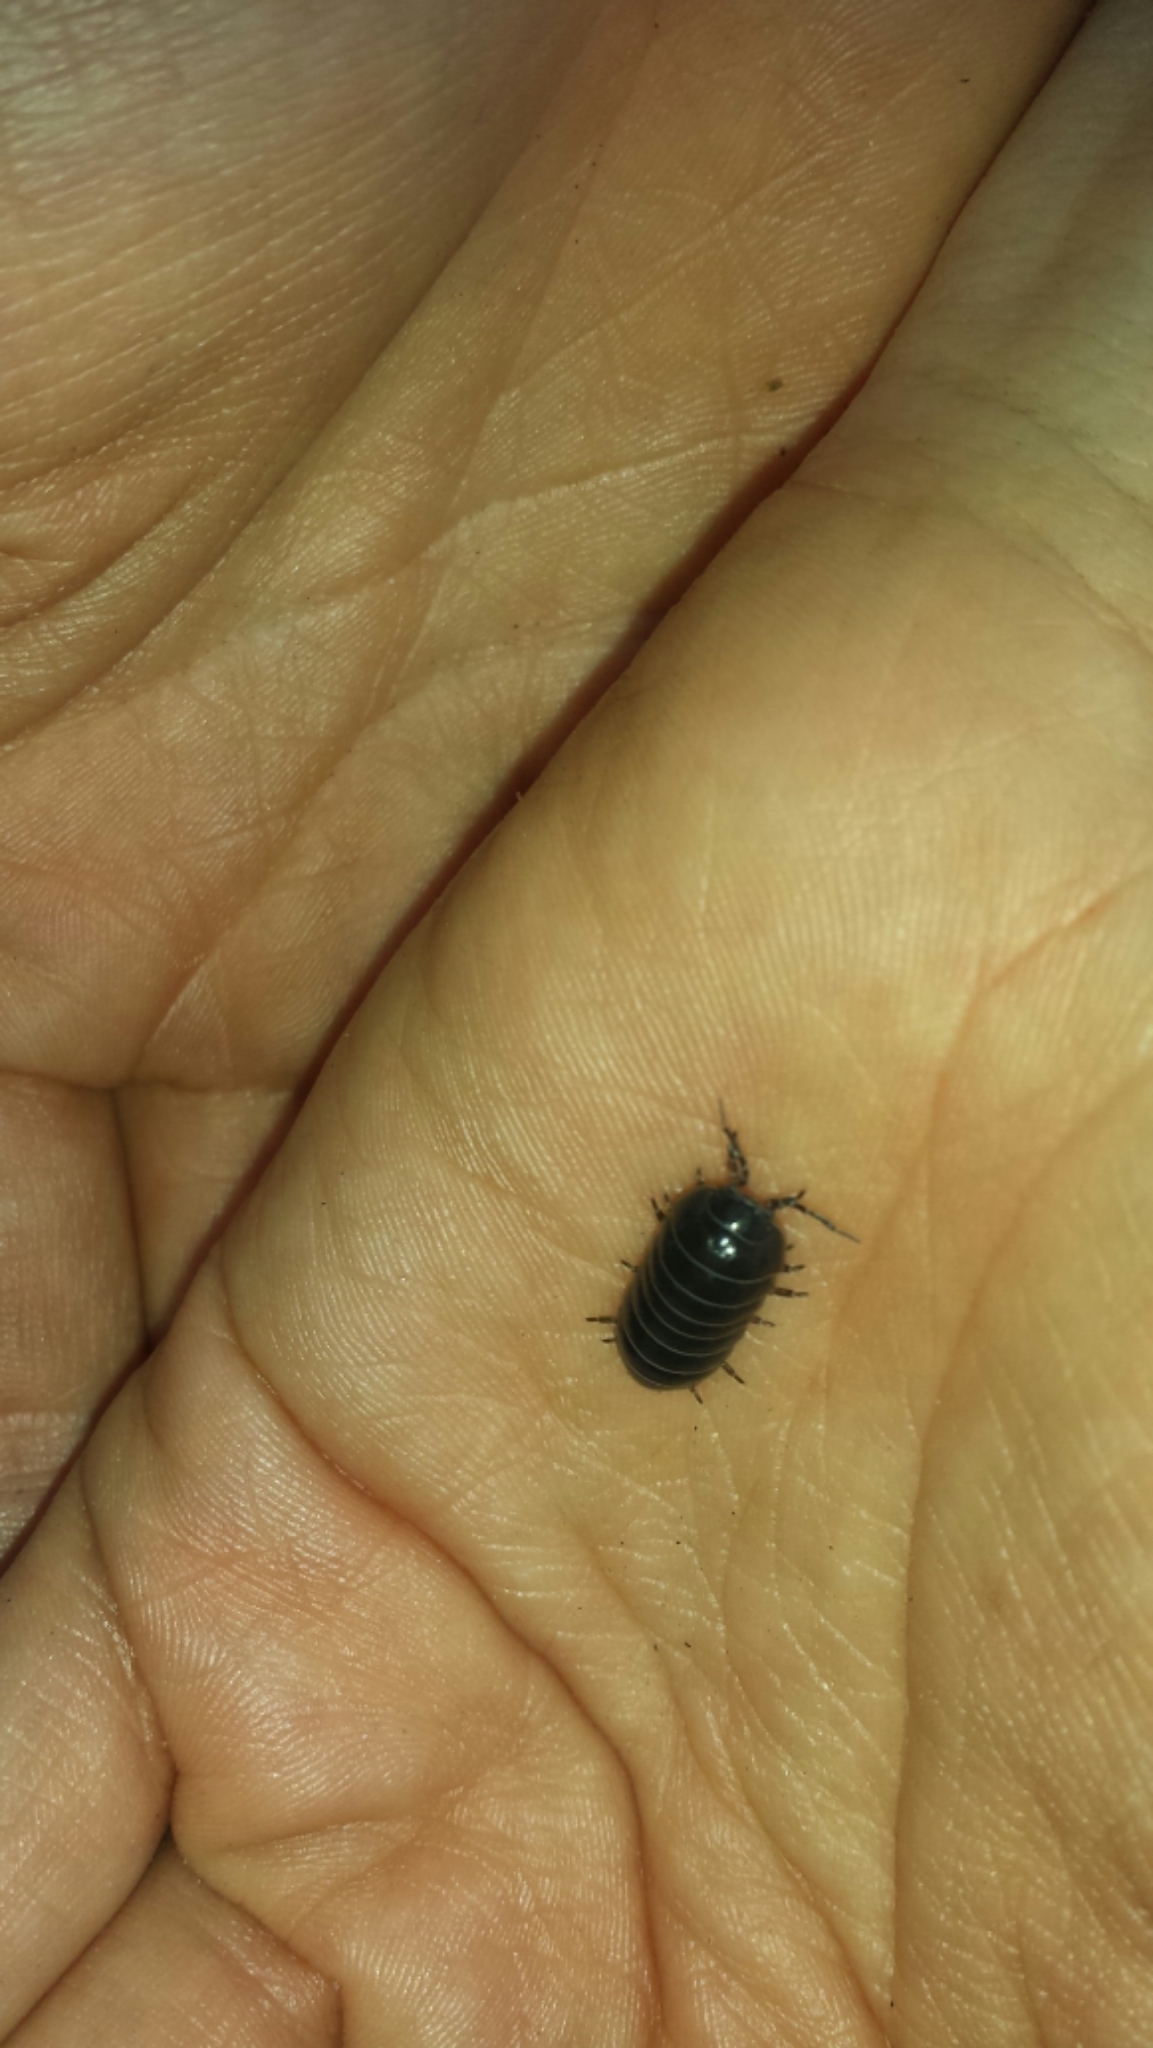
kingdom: Animalia
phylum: Arthropoda
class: Malacostraca
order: Isopoda
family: Armadillidiidae
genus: Armadillidium
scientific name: Armadillidium vulgare
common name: Common pill woodlouse
